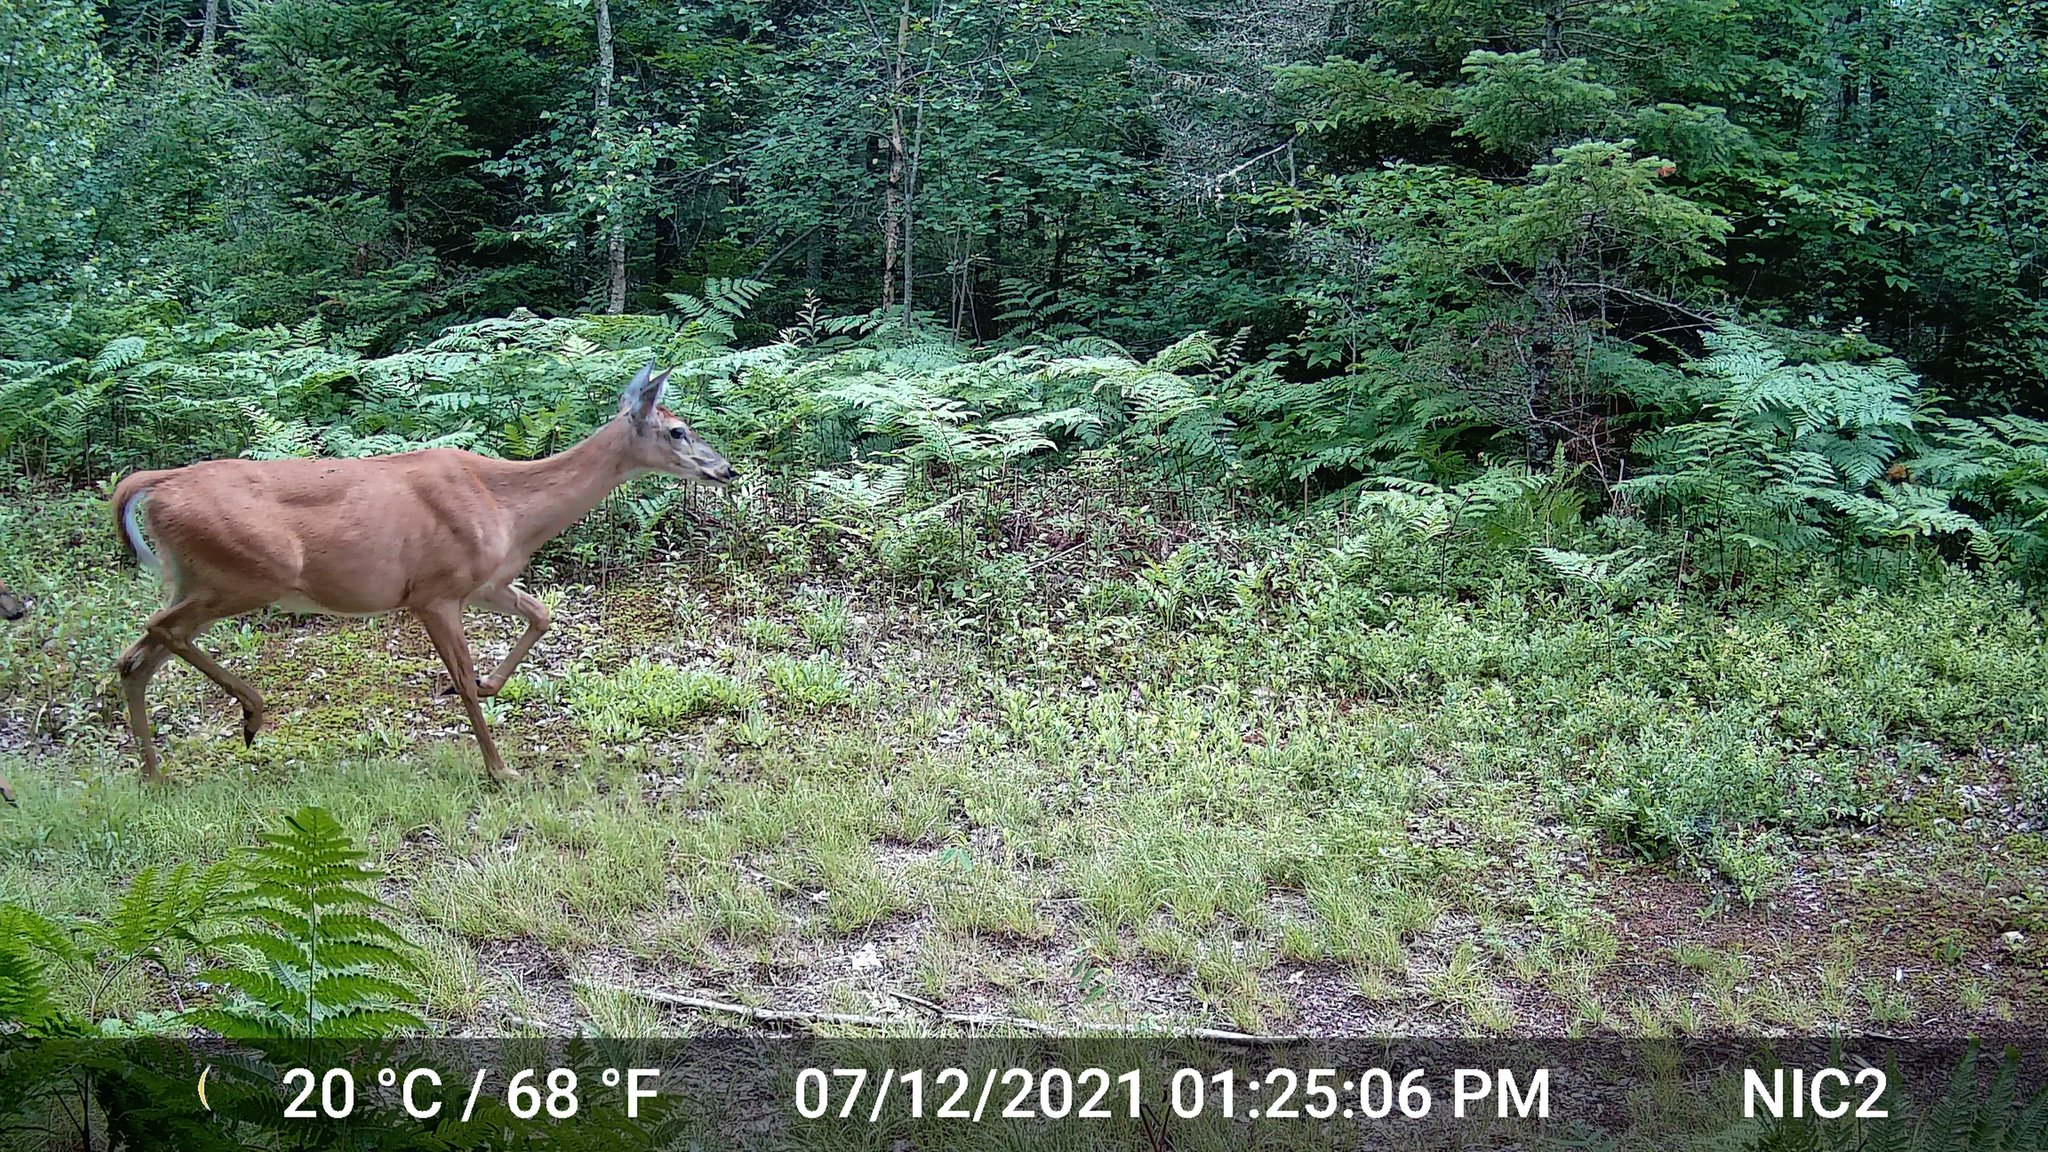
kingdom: Animalia
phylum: Chordata
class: Mammalia
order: Artiodactyla
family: Cervidae
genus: Odocoileus
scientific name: Odocoileus virginianus
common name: White-tailed deer
